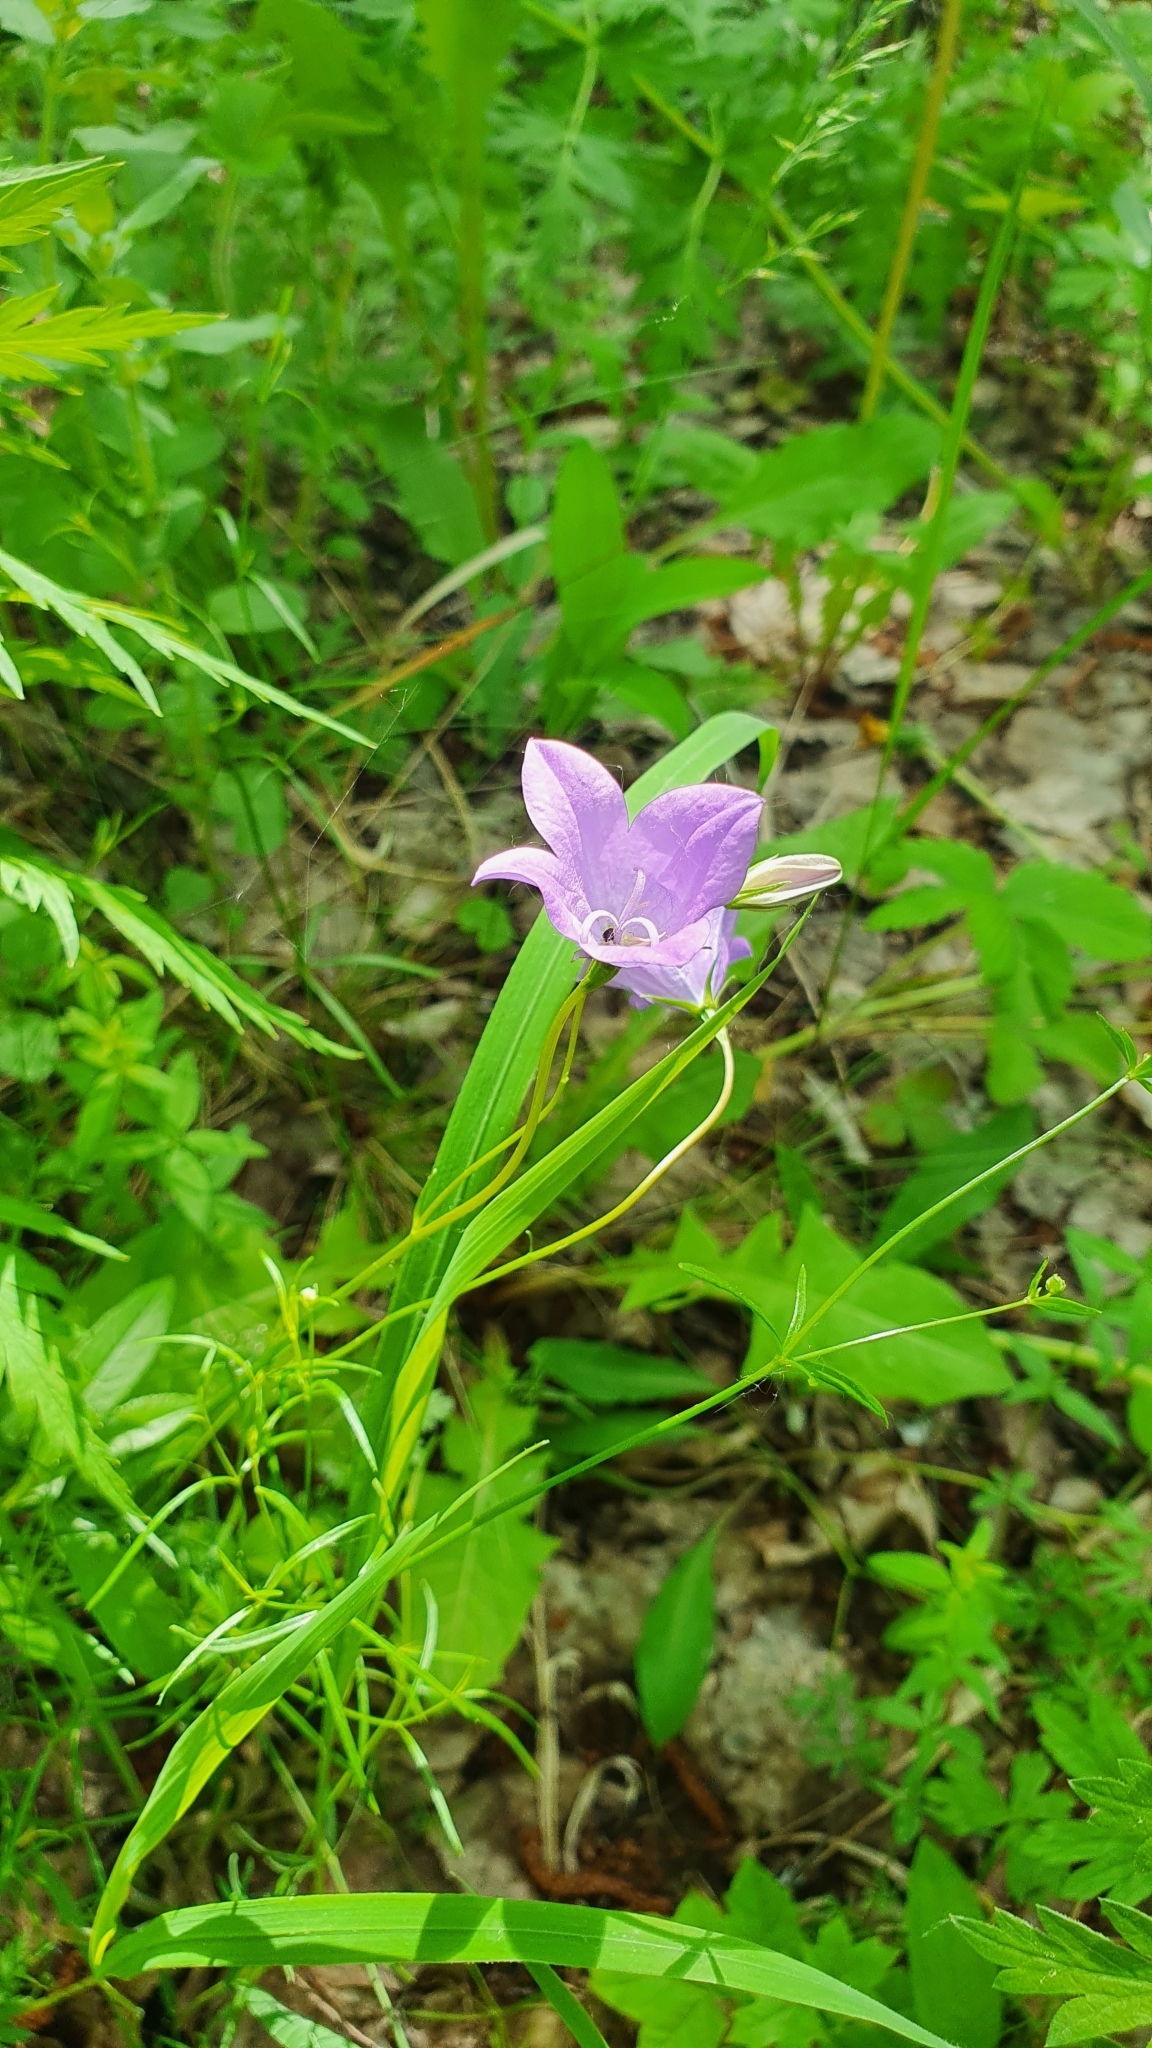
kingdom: Plantae
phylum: Tracheophyta
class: Magnoliopsida
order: Asterales
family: Campanulaceae
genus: Campanula
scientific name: Campanula stevenii
